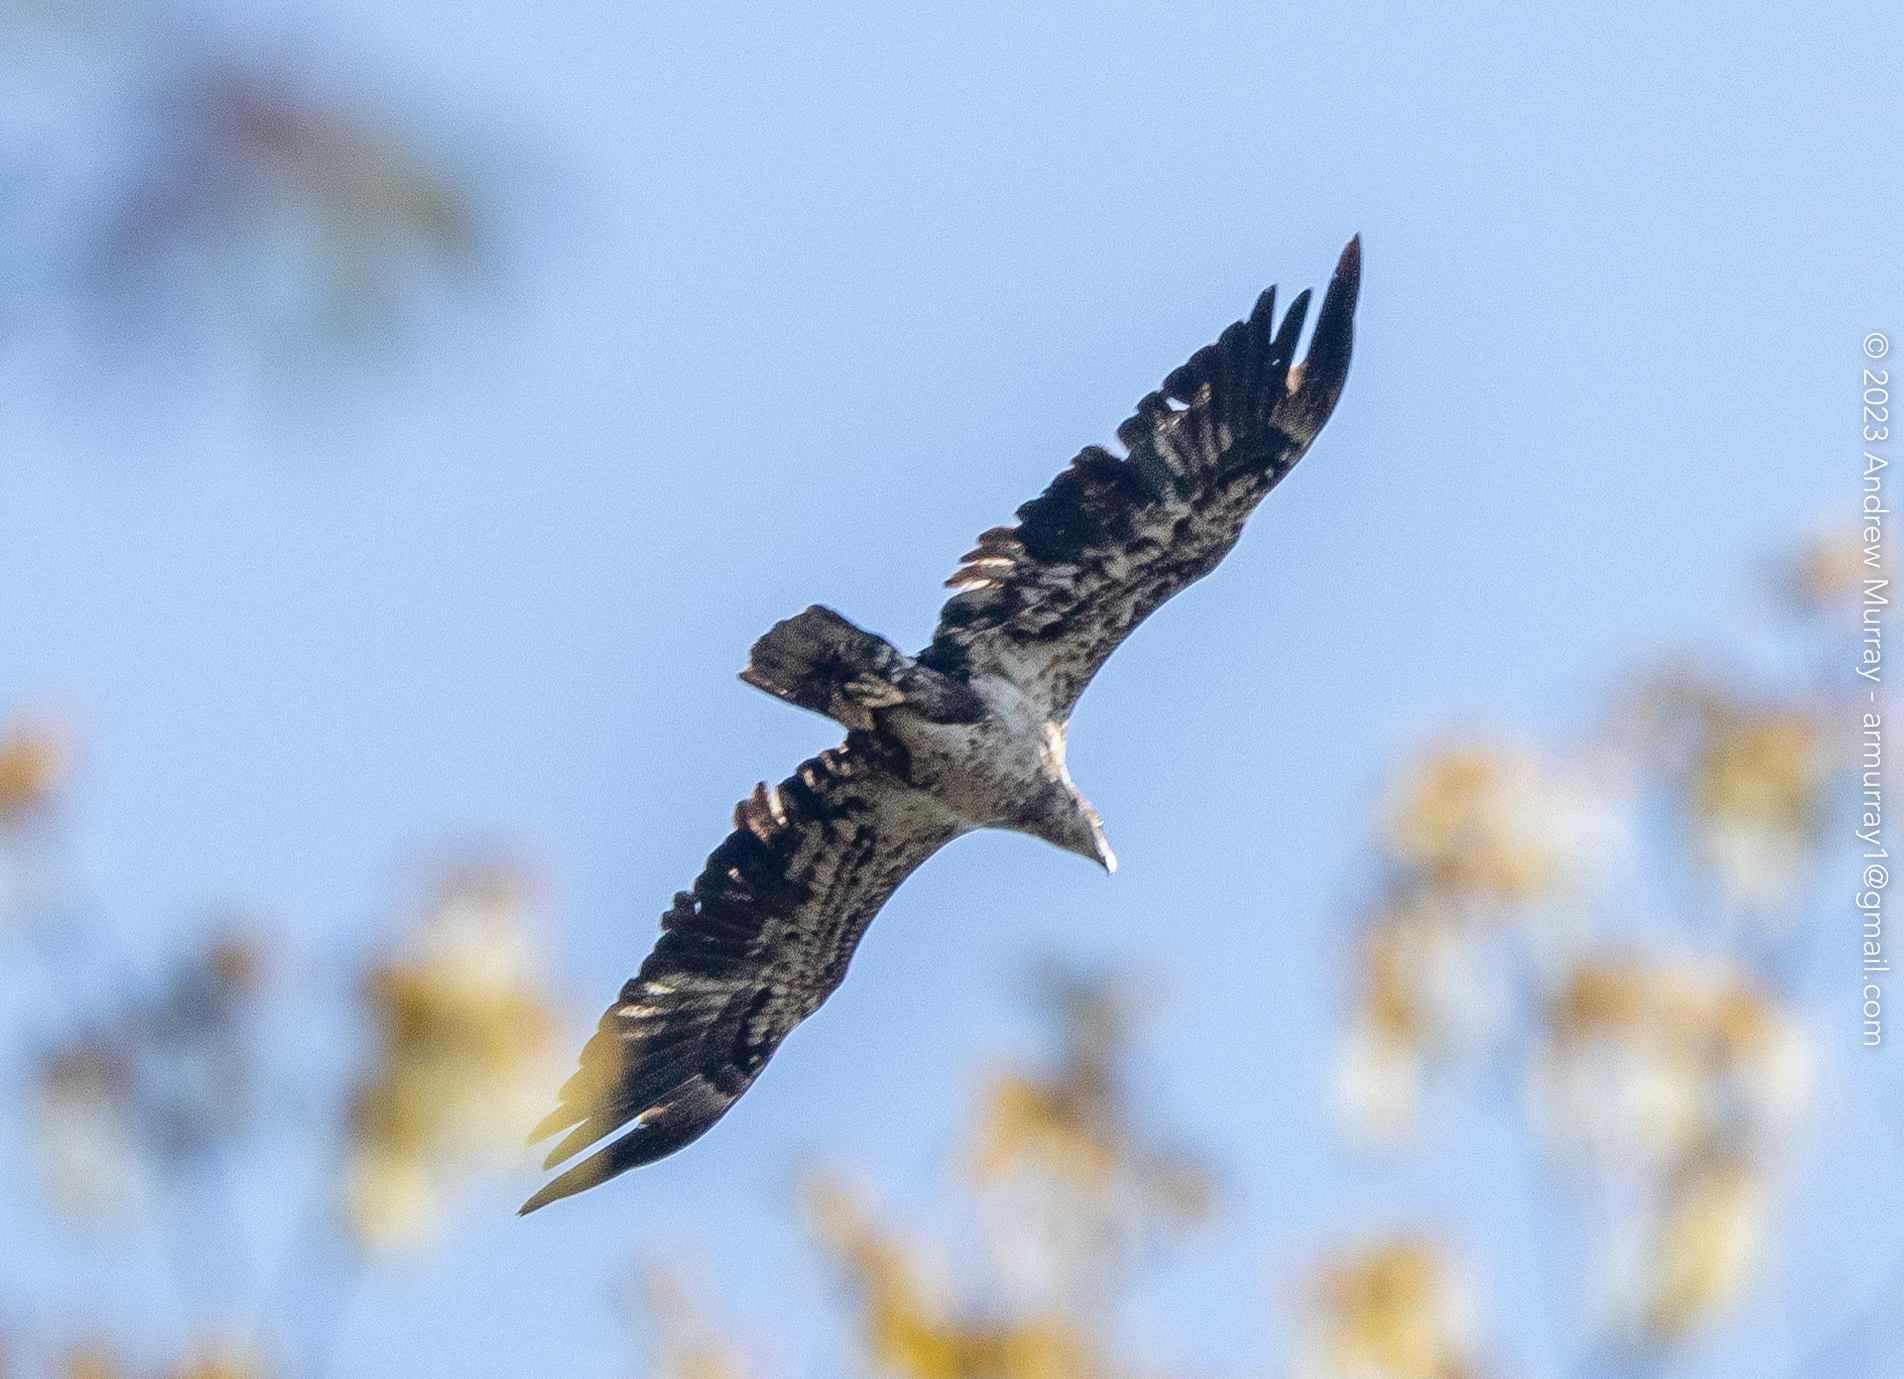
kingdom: Animalia
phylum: Chordata
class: Aves
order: Accipitriformes
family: Accipitridae
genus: Haliaeetus
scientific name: Haliaeetus leucocephalus
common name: Bald eagle
